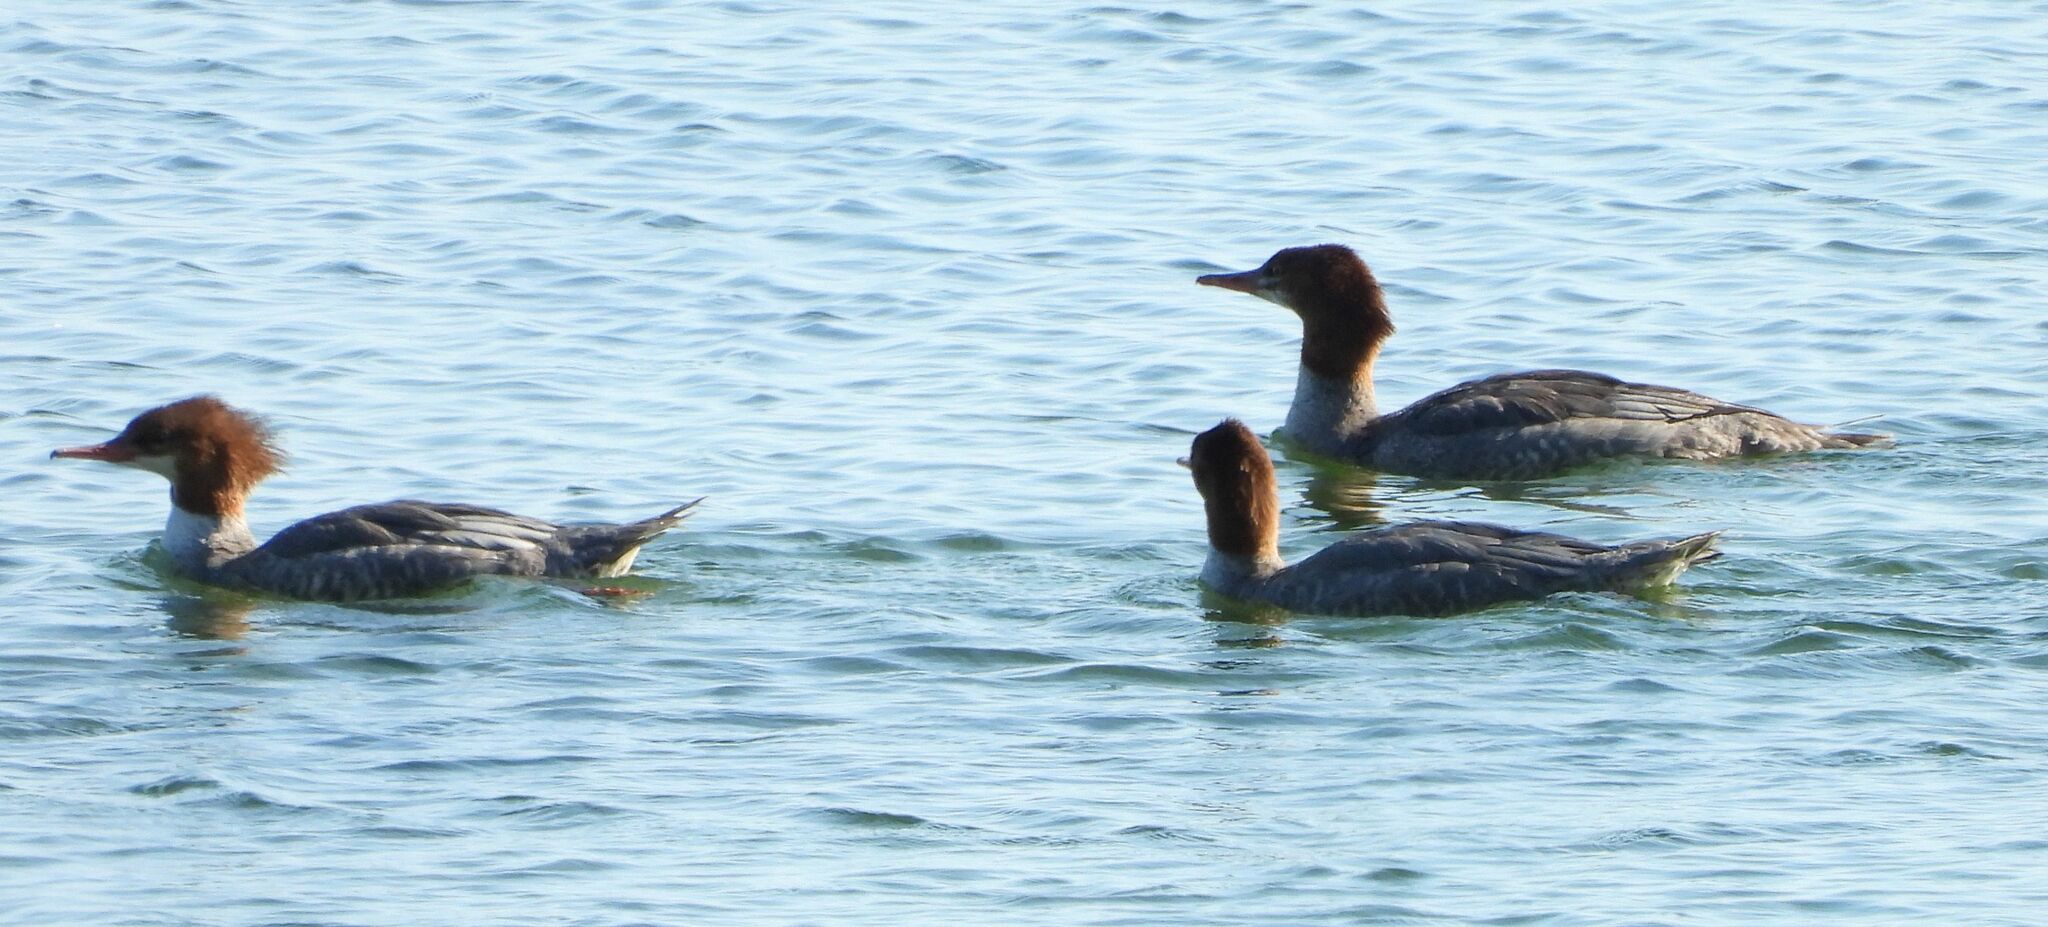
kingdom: Animalia
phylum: Chordata
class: Aves
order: Anseriformes
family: Anatidae
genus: Mergus
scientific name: Mergus merganser
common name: Common merganser
